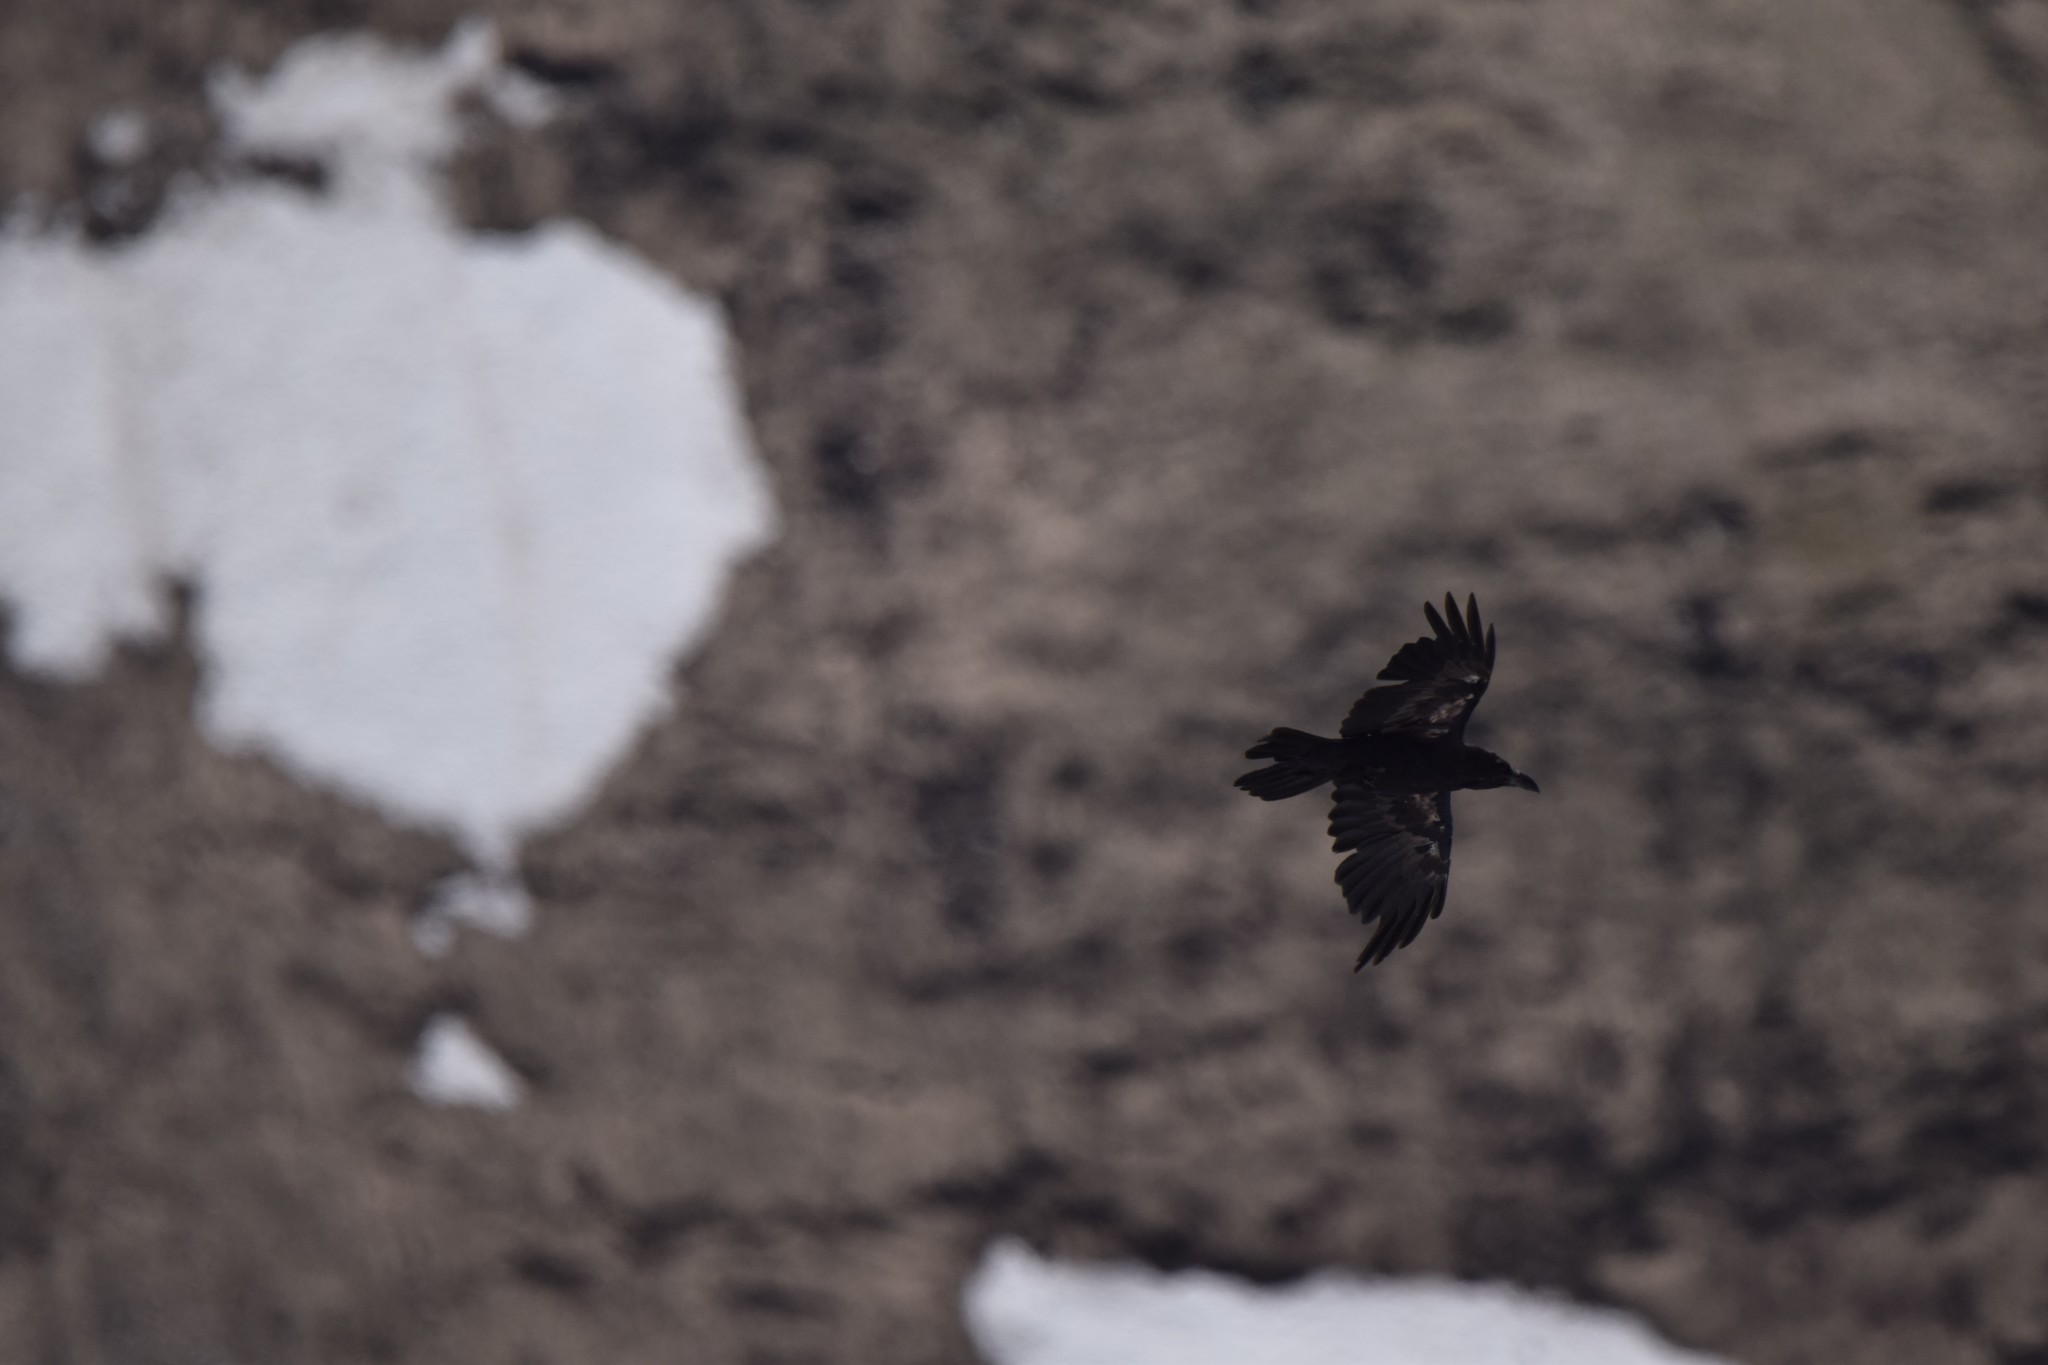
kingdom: Animalia
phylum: Chordata
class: Aves
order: Passeriformes
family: Corvidae
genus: Corvus
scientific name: Corvus corax
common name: Common raven
